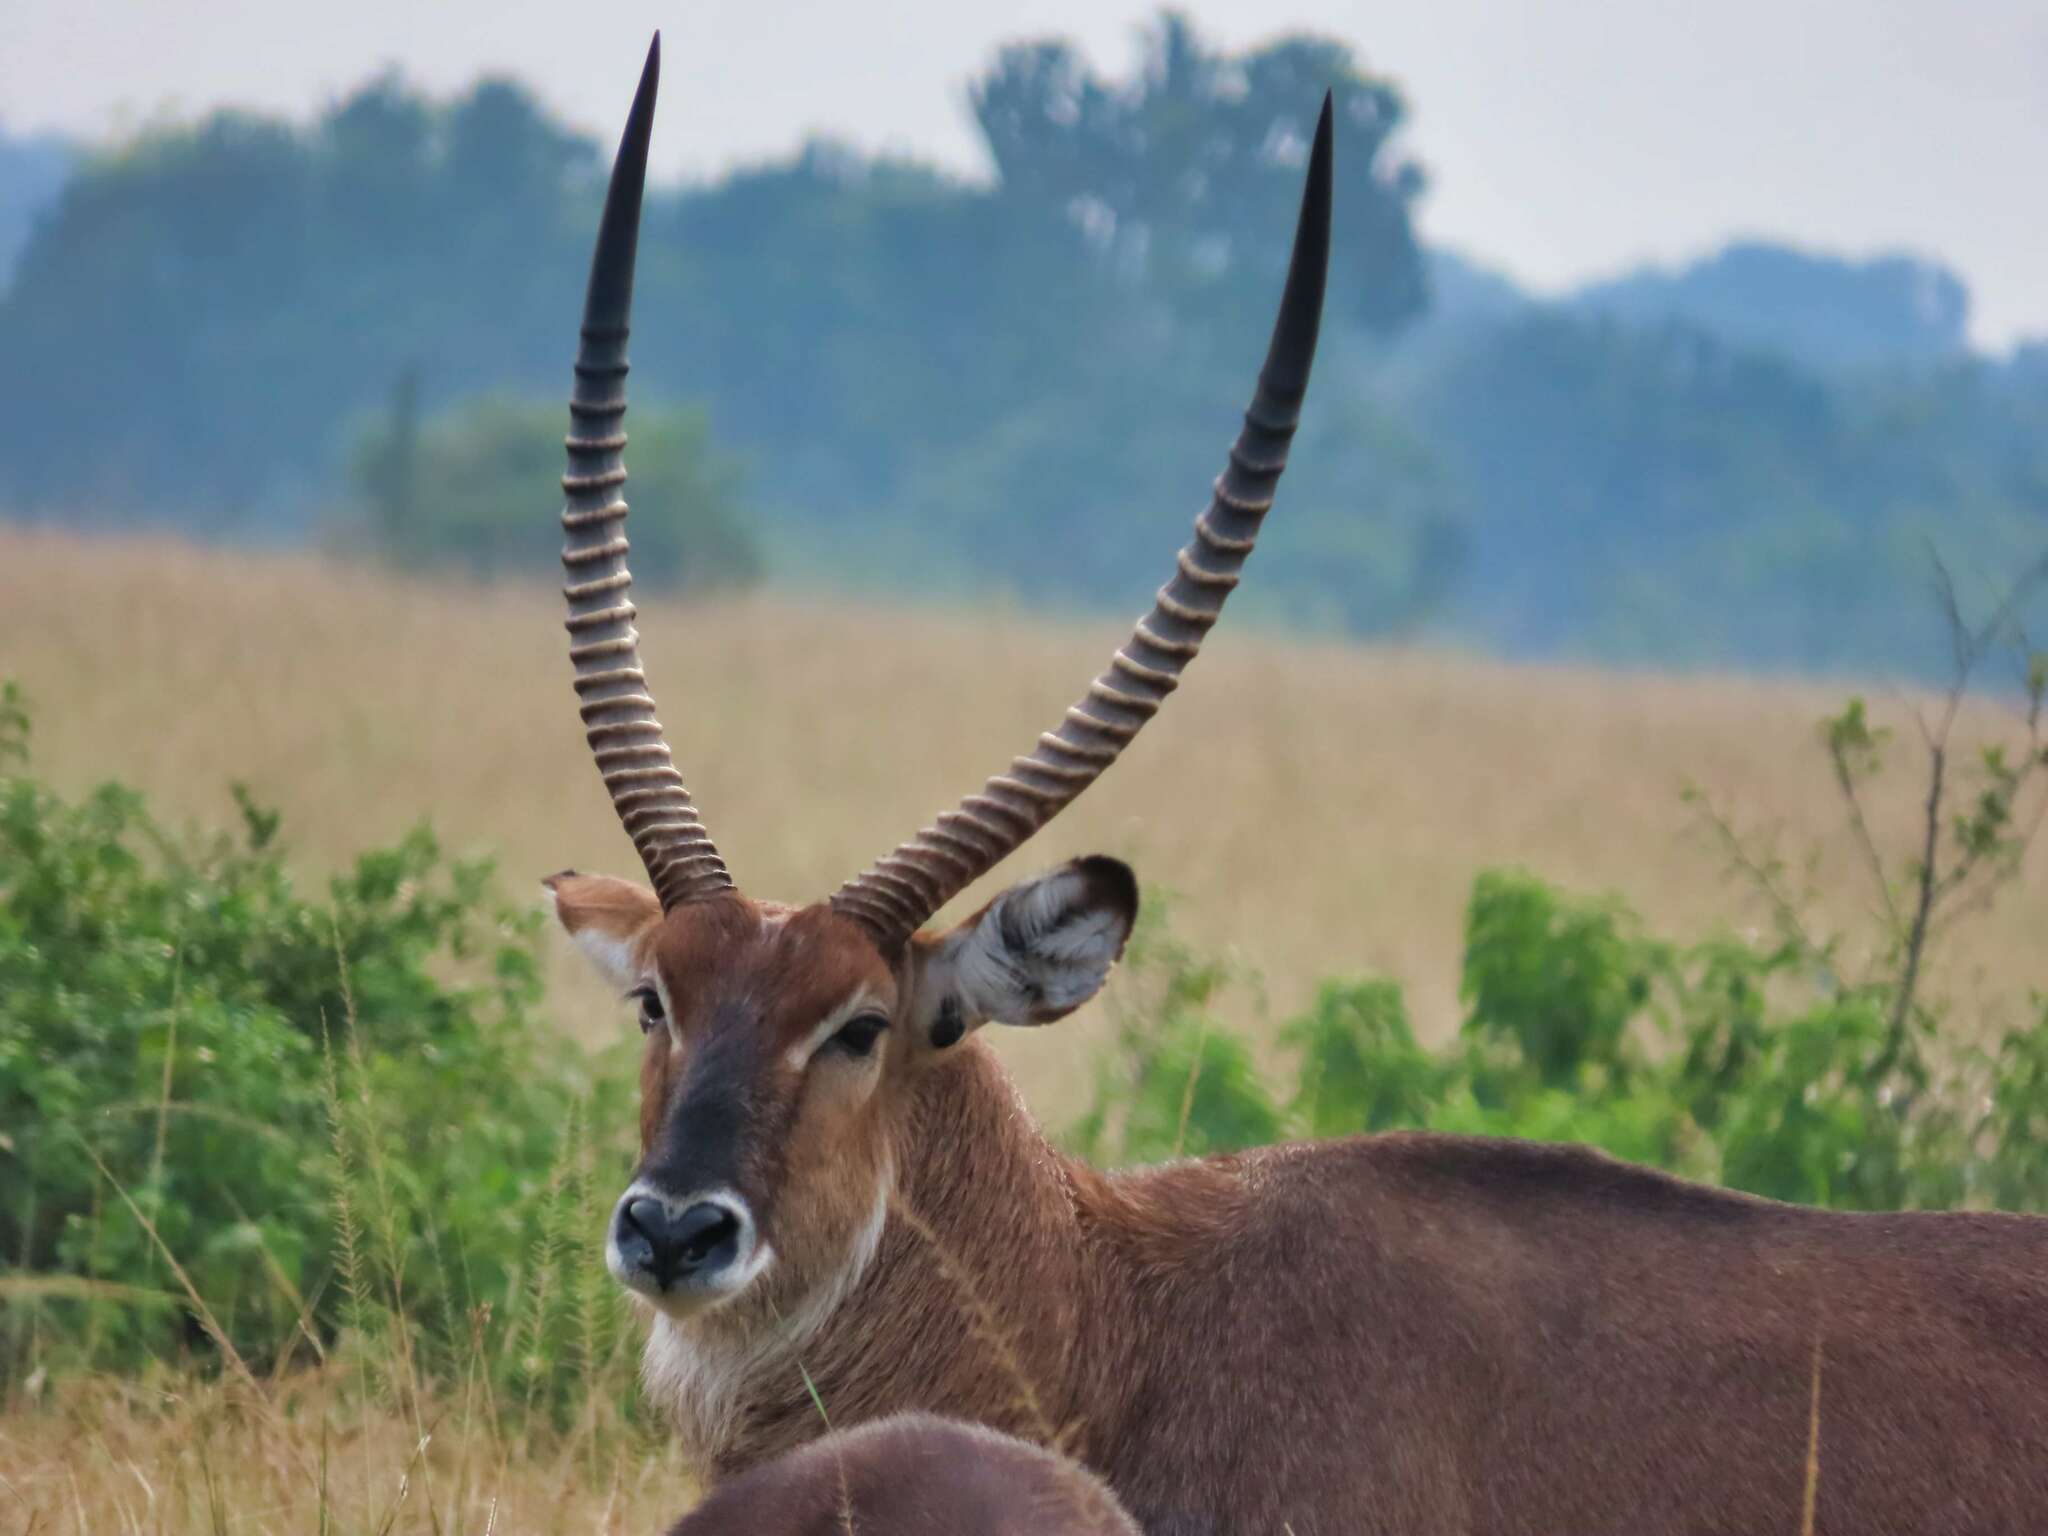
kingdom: Animalia
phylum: Chordata
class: Mammalia
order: Artiodactyla
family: Bovidae
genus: Kobus
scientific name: Kobus ellipsiprymnus
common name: Waterbuck
